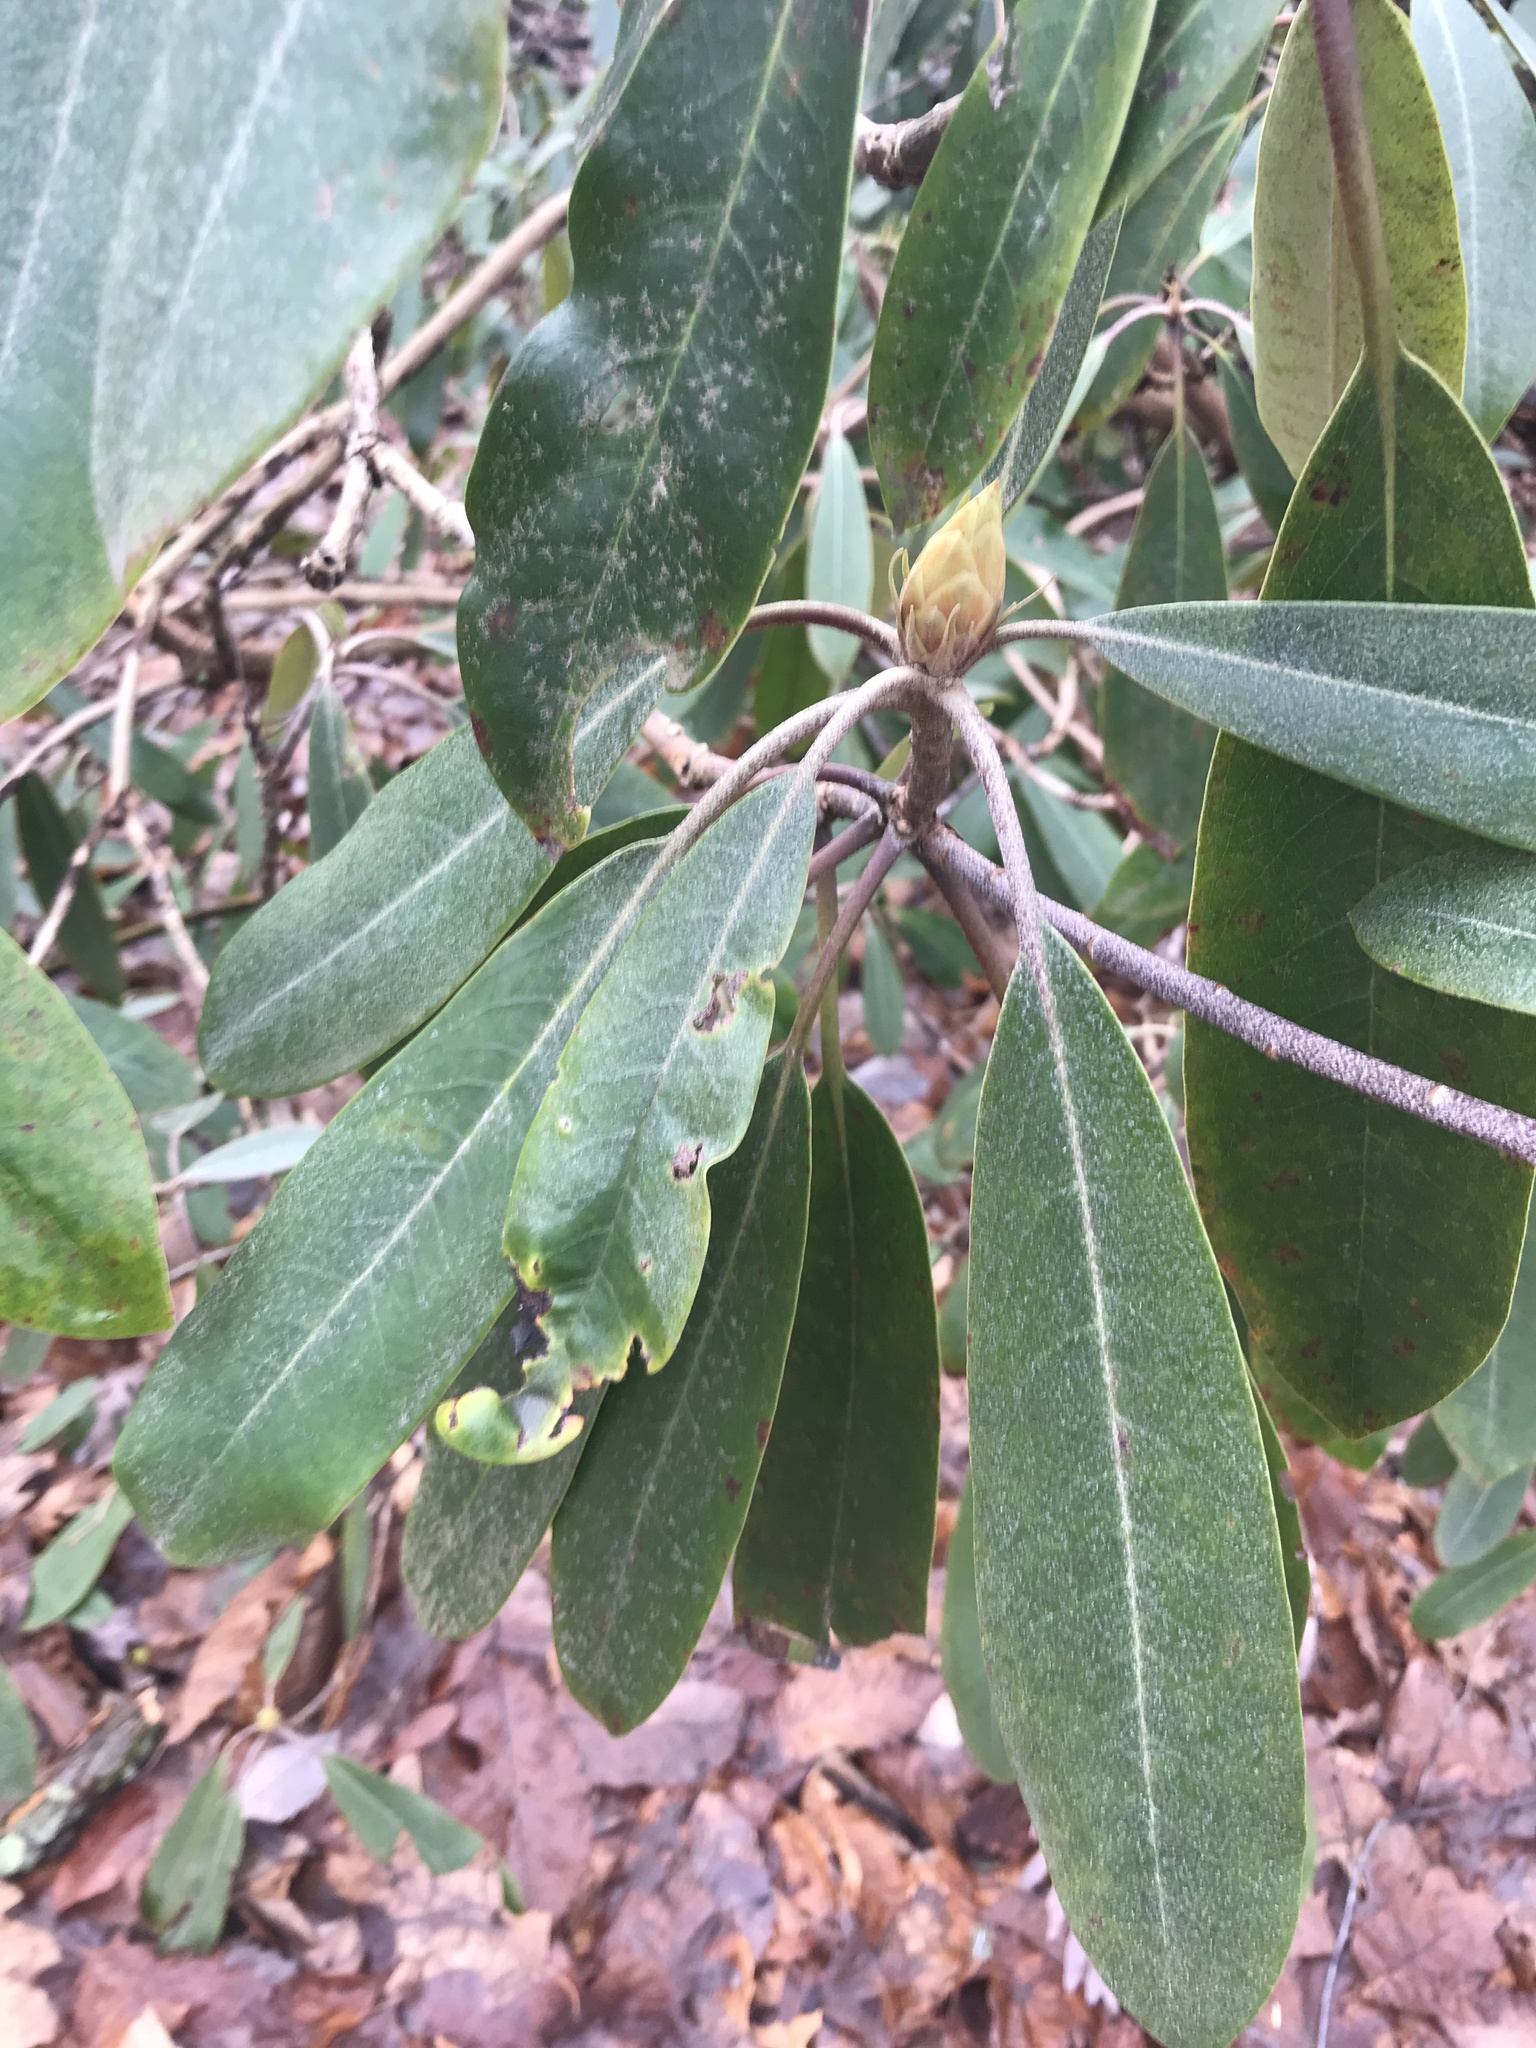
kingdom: Plantae
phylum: Tracheophyta
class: Magnoliopsida
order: Ericales
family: Ericaceae
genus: Rhododendron
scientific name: Rhododendron maximum
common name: Great rhododendron
